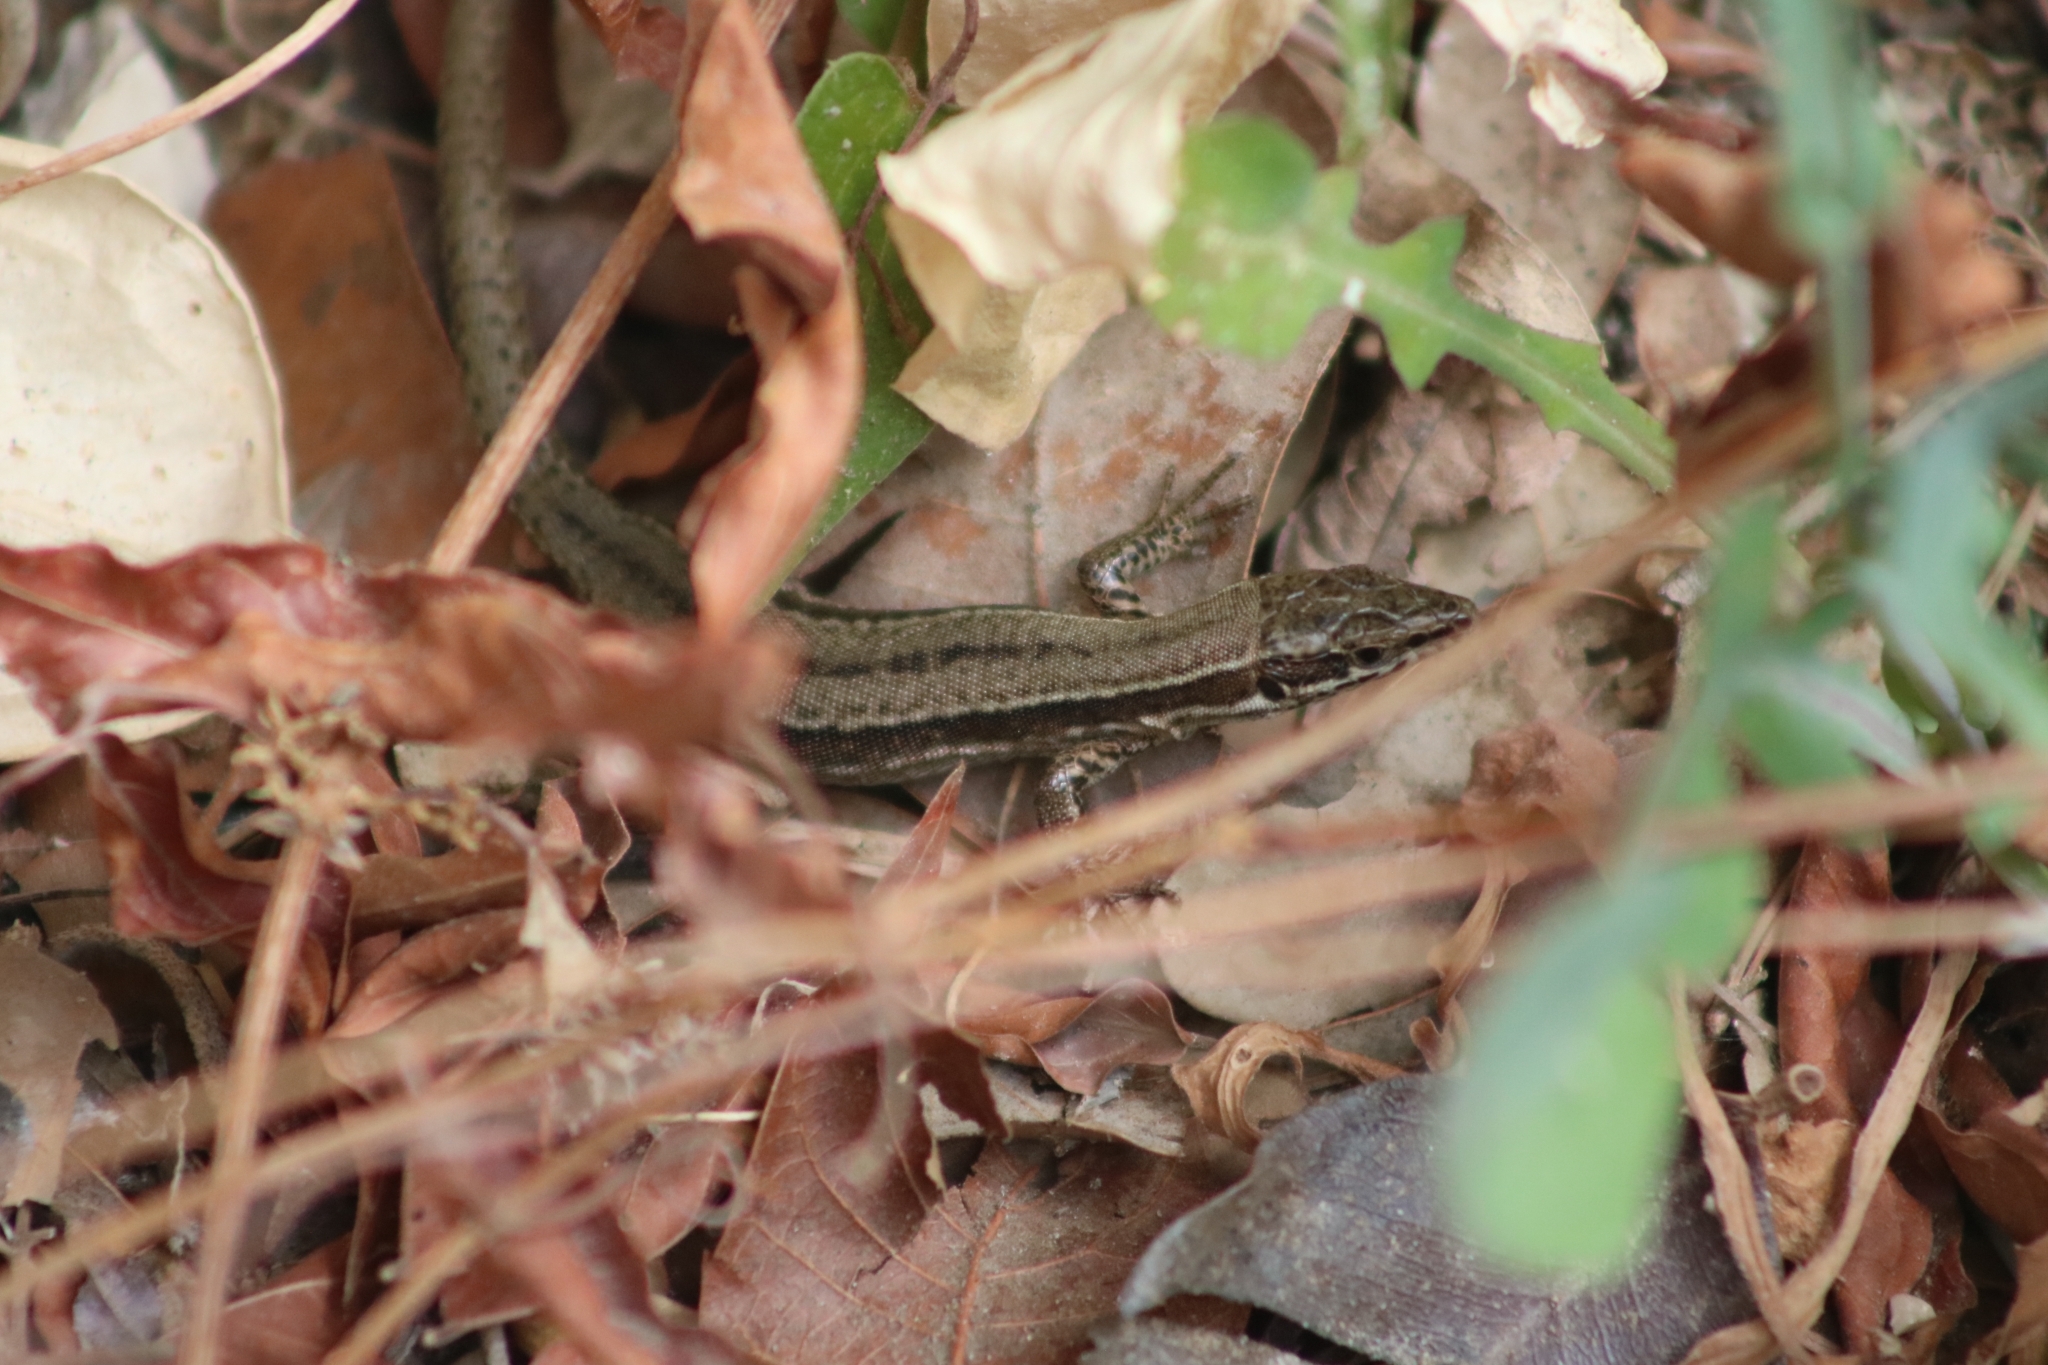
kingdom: Animalia
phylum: Chordata
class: Squamata
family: Lacertidae
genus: Podarcis
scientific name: Podarcis muralis
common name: Common wall lizard
